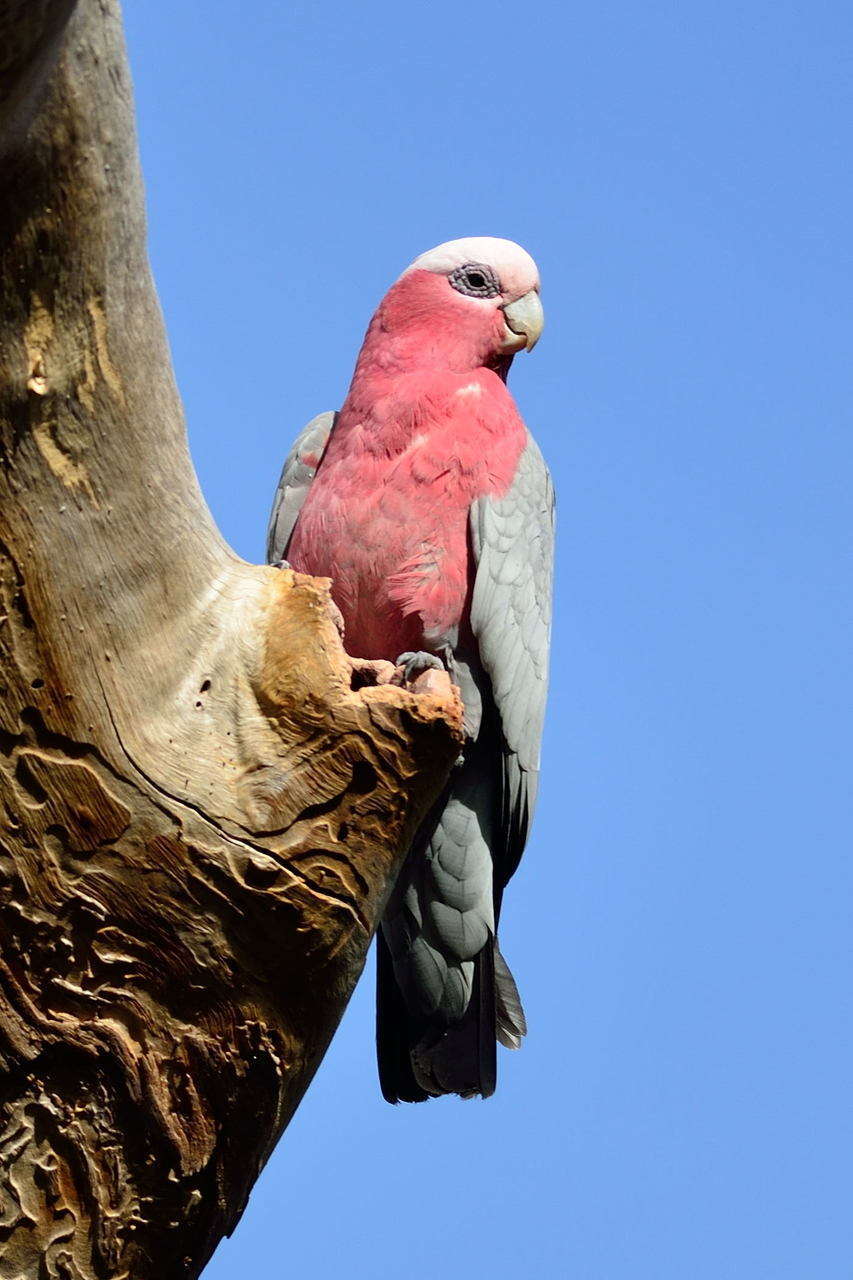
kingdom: Animalia
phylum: Chordata
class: Aves
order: Psittaciformes
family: Psittacidae
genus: Eolophus
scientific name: Eolophus roseicapilla
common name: Galah
